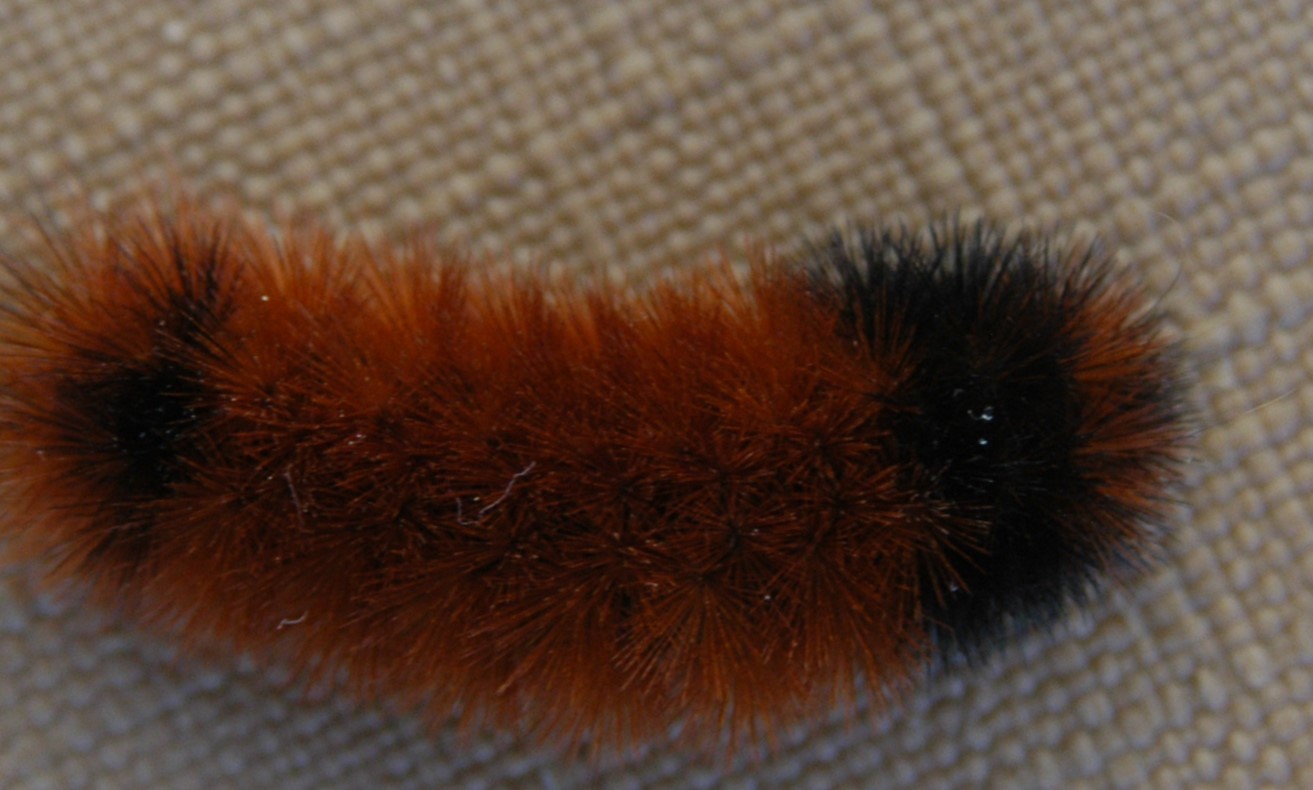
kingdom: Animalia
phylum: Arthropoda
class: Insecta
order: Lepidoptera
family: Erebidae
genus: Pyrrharctia
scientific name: Pyrrharctia isabella
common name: Isabella tiger moth
